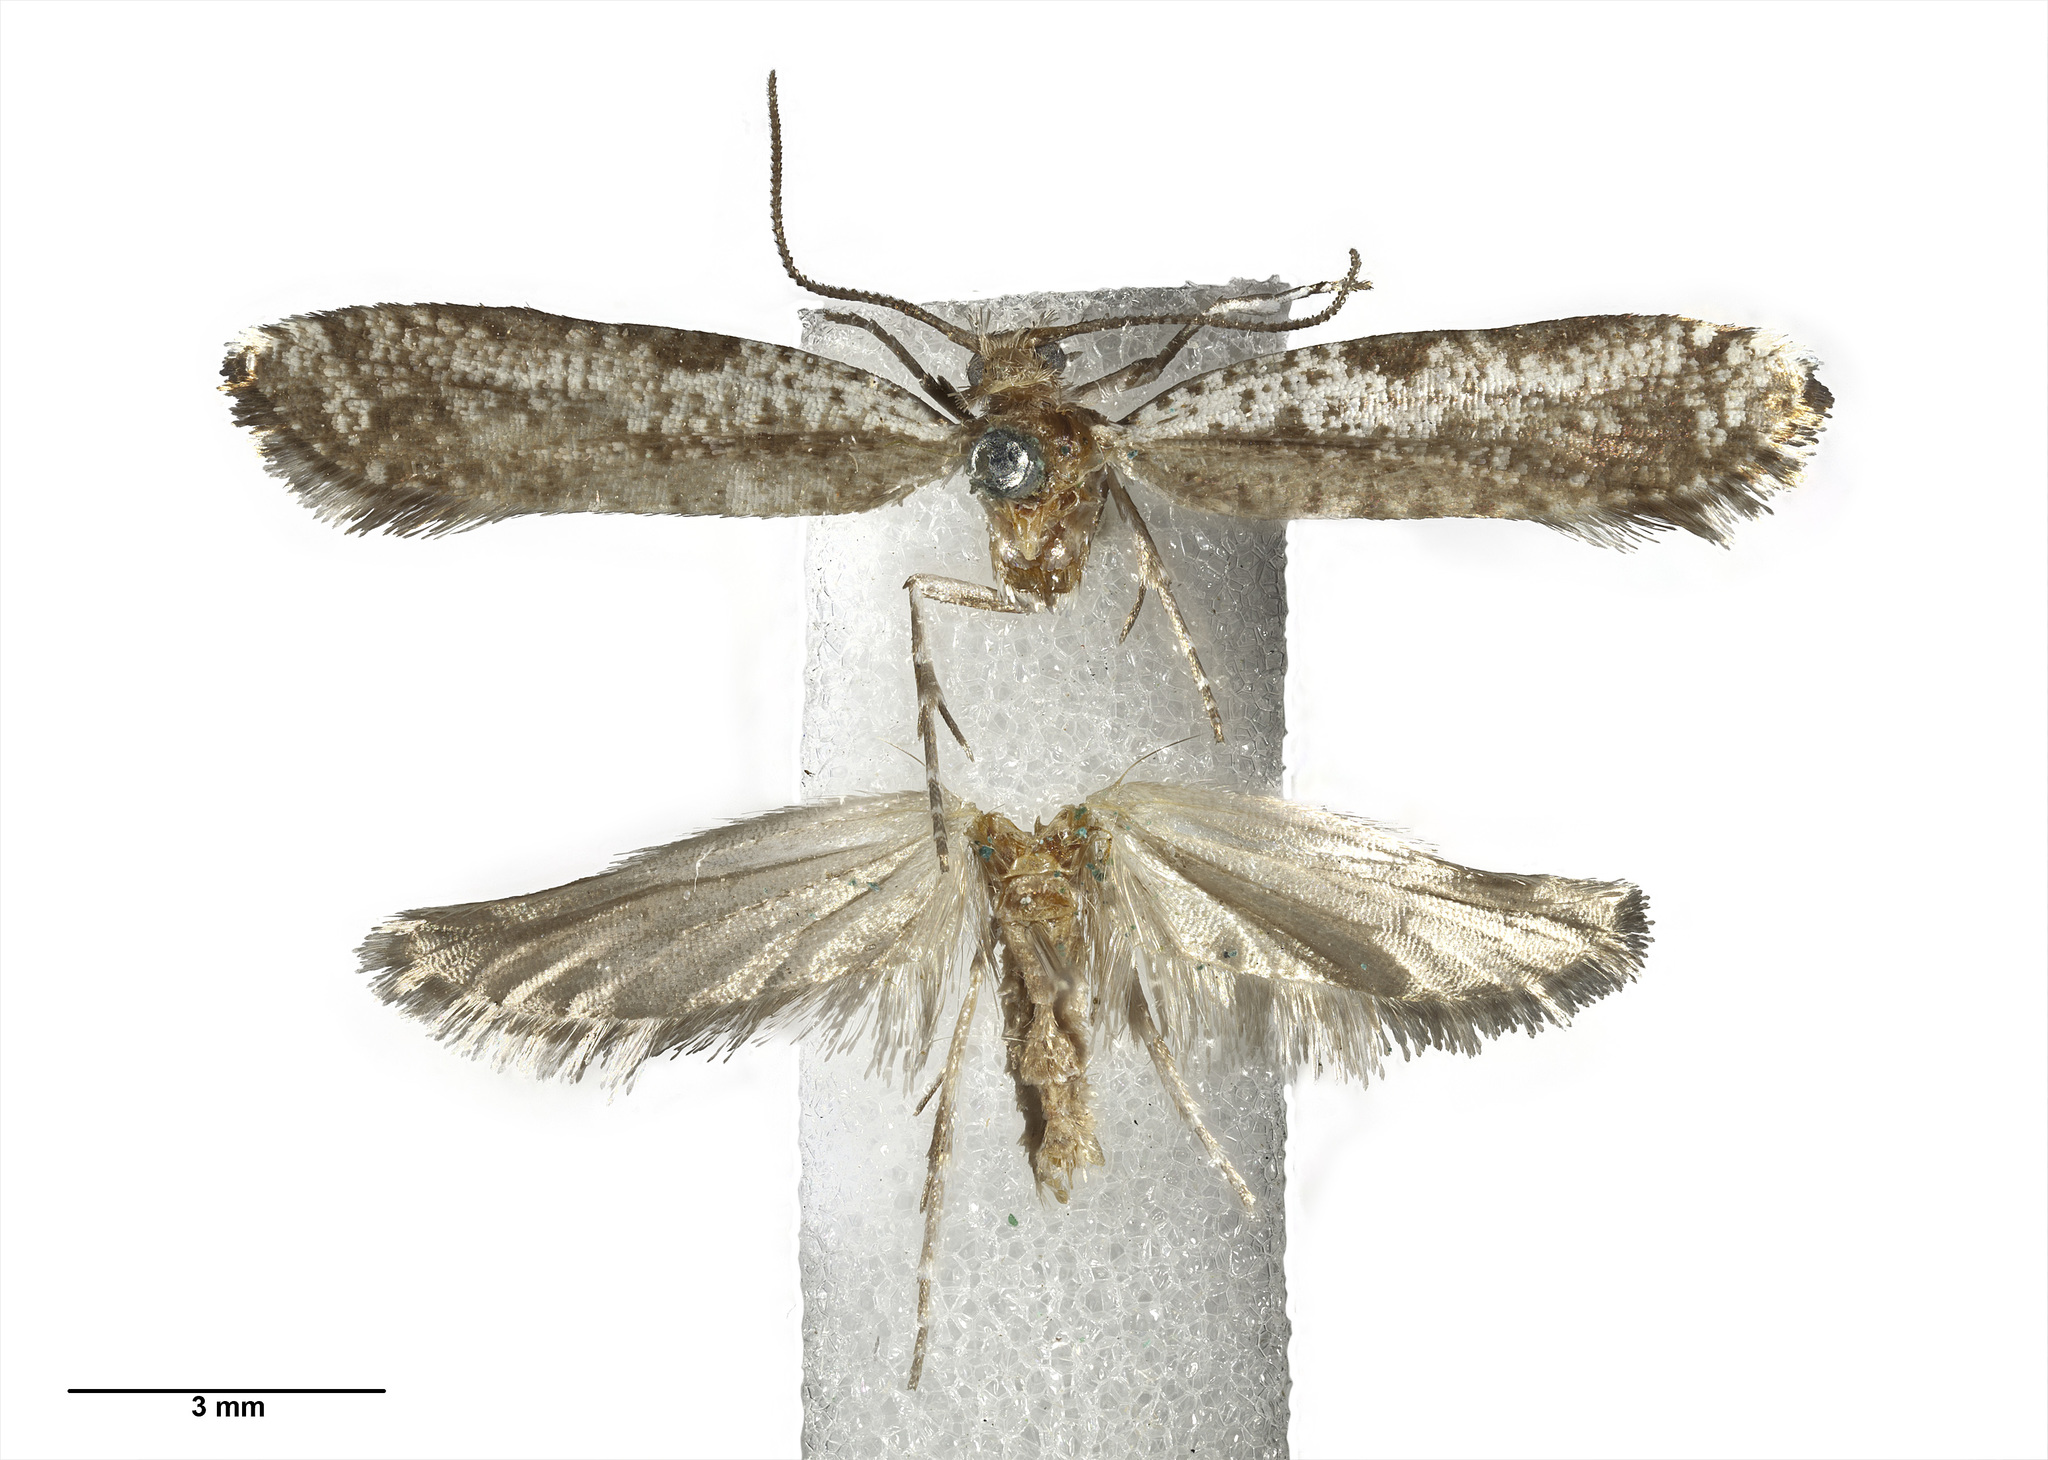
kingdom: Animalia
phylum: Arthropoda
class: Insecta
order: Lepidoptera
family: Glyphipterigidae
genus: Orthenches
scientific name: Orthenches septentrionalis
